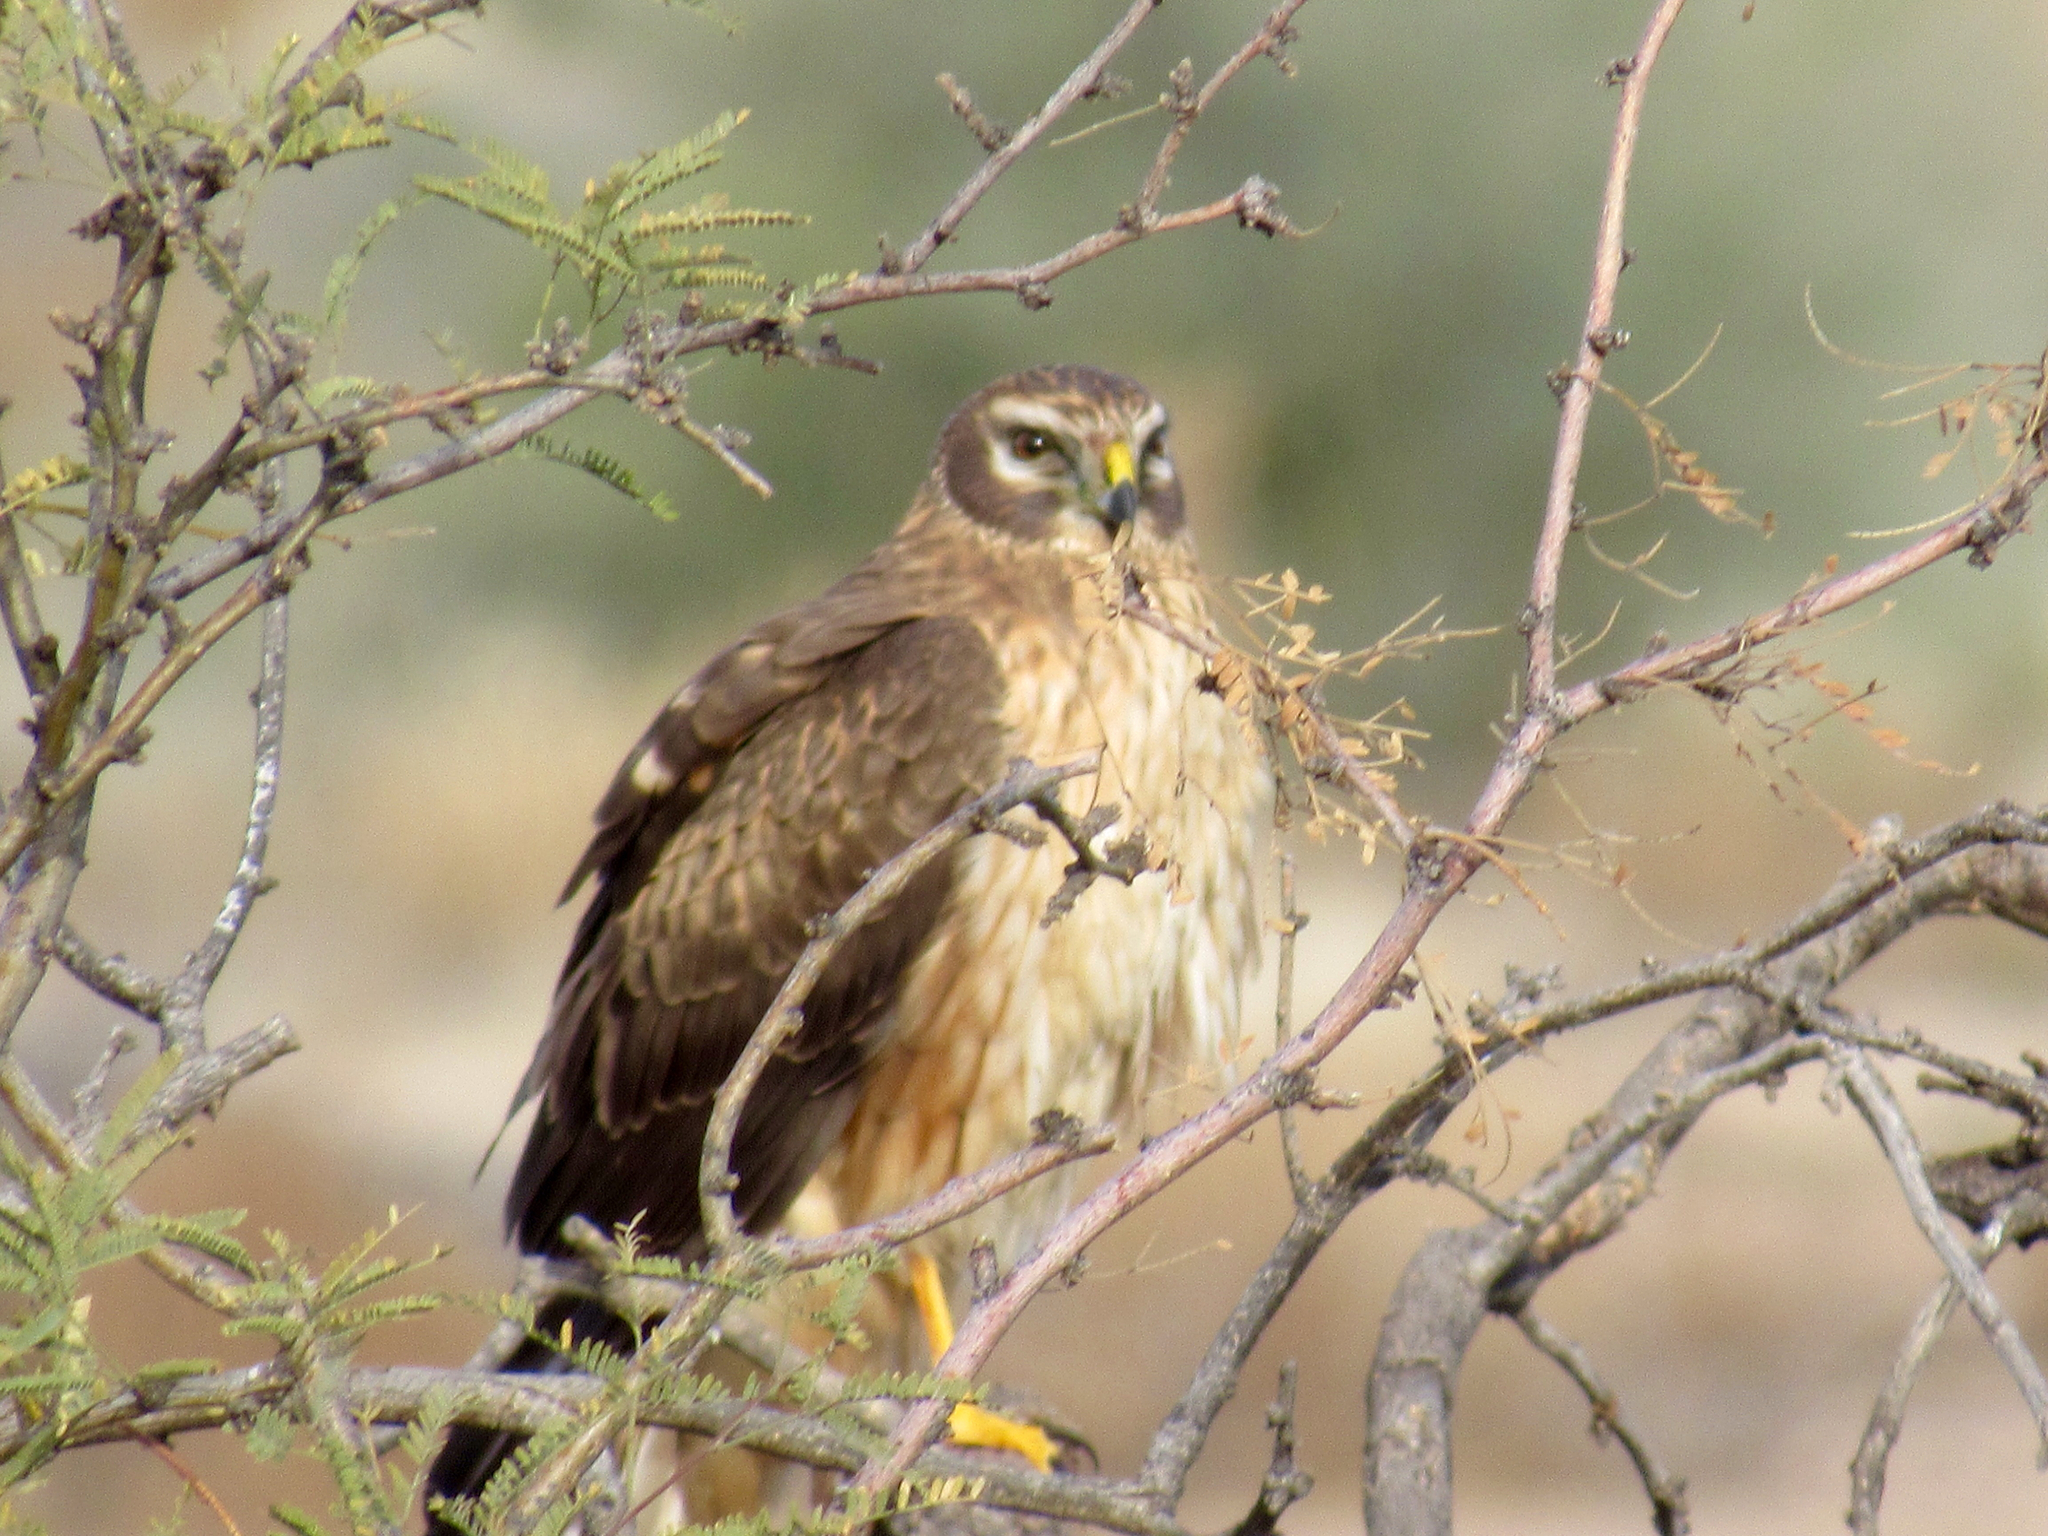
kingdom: Animalia
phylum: Chordata
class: Aves
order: Accipitriformes
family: Accipitridae
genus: Circus
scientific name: Circus cyaneus
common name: Hen harrier
